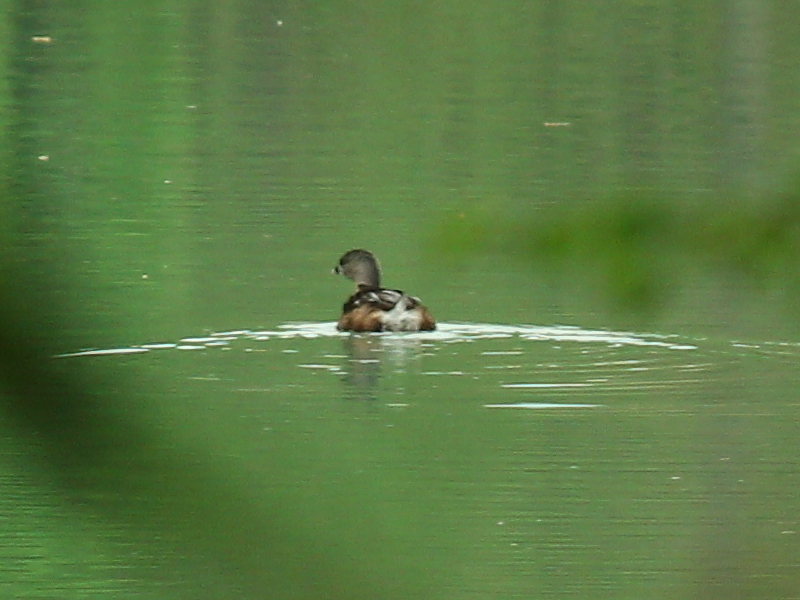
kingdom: Animalia
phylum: Chordata
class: Aves
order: Podicipediformes
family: Podicipedidae
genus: Podilymbus
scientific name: Podilymbus podiceps
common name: Pied-billed grebe
